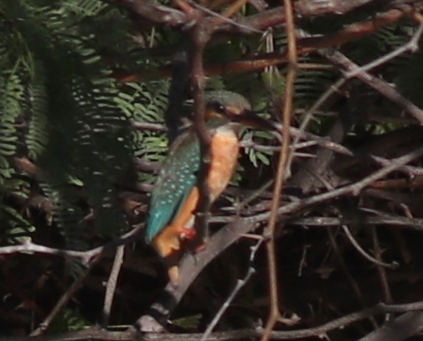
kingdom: Animalia
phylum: Chordata
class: Aves
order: Coraciiformes
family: Alcedinidae
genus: Alcedo
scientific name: Alcedo atthis
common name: Common kingfisher
